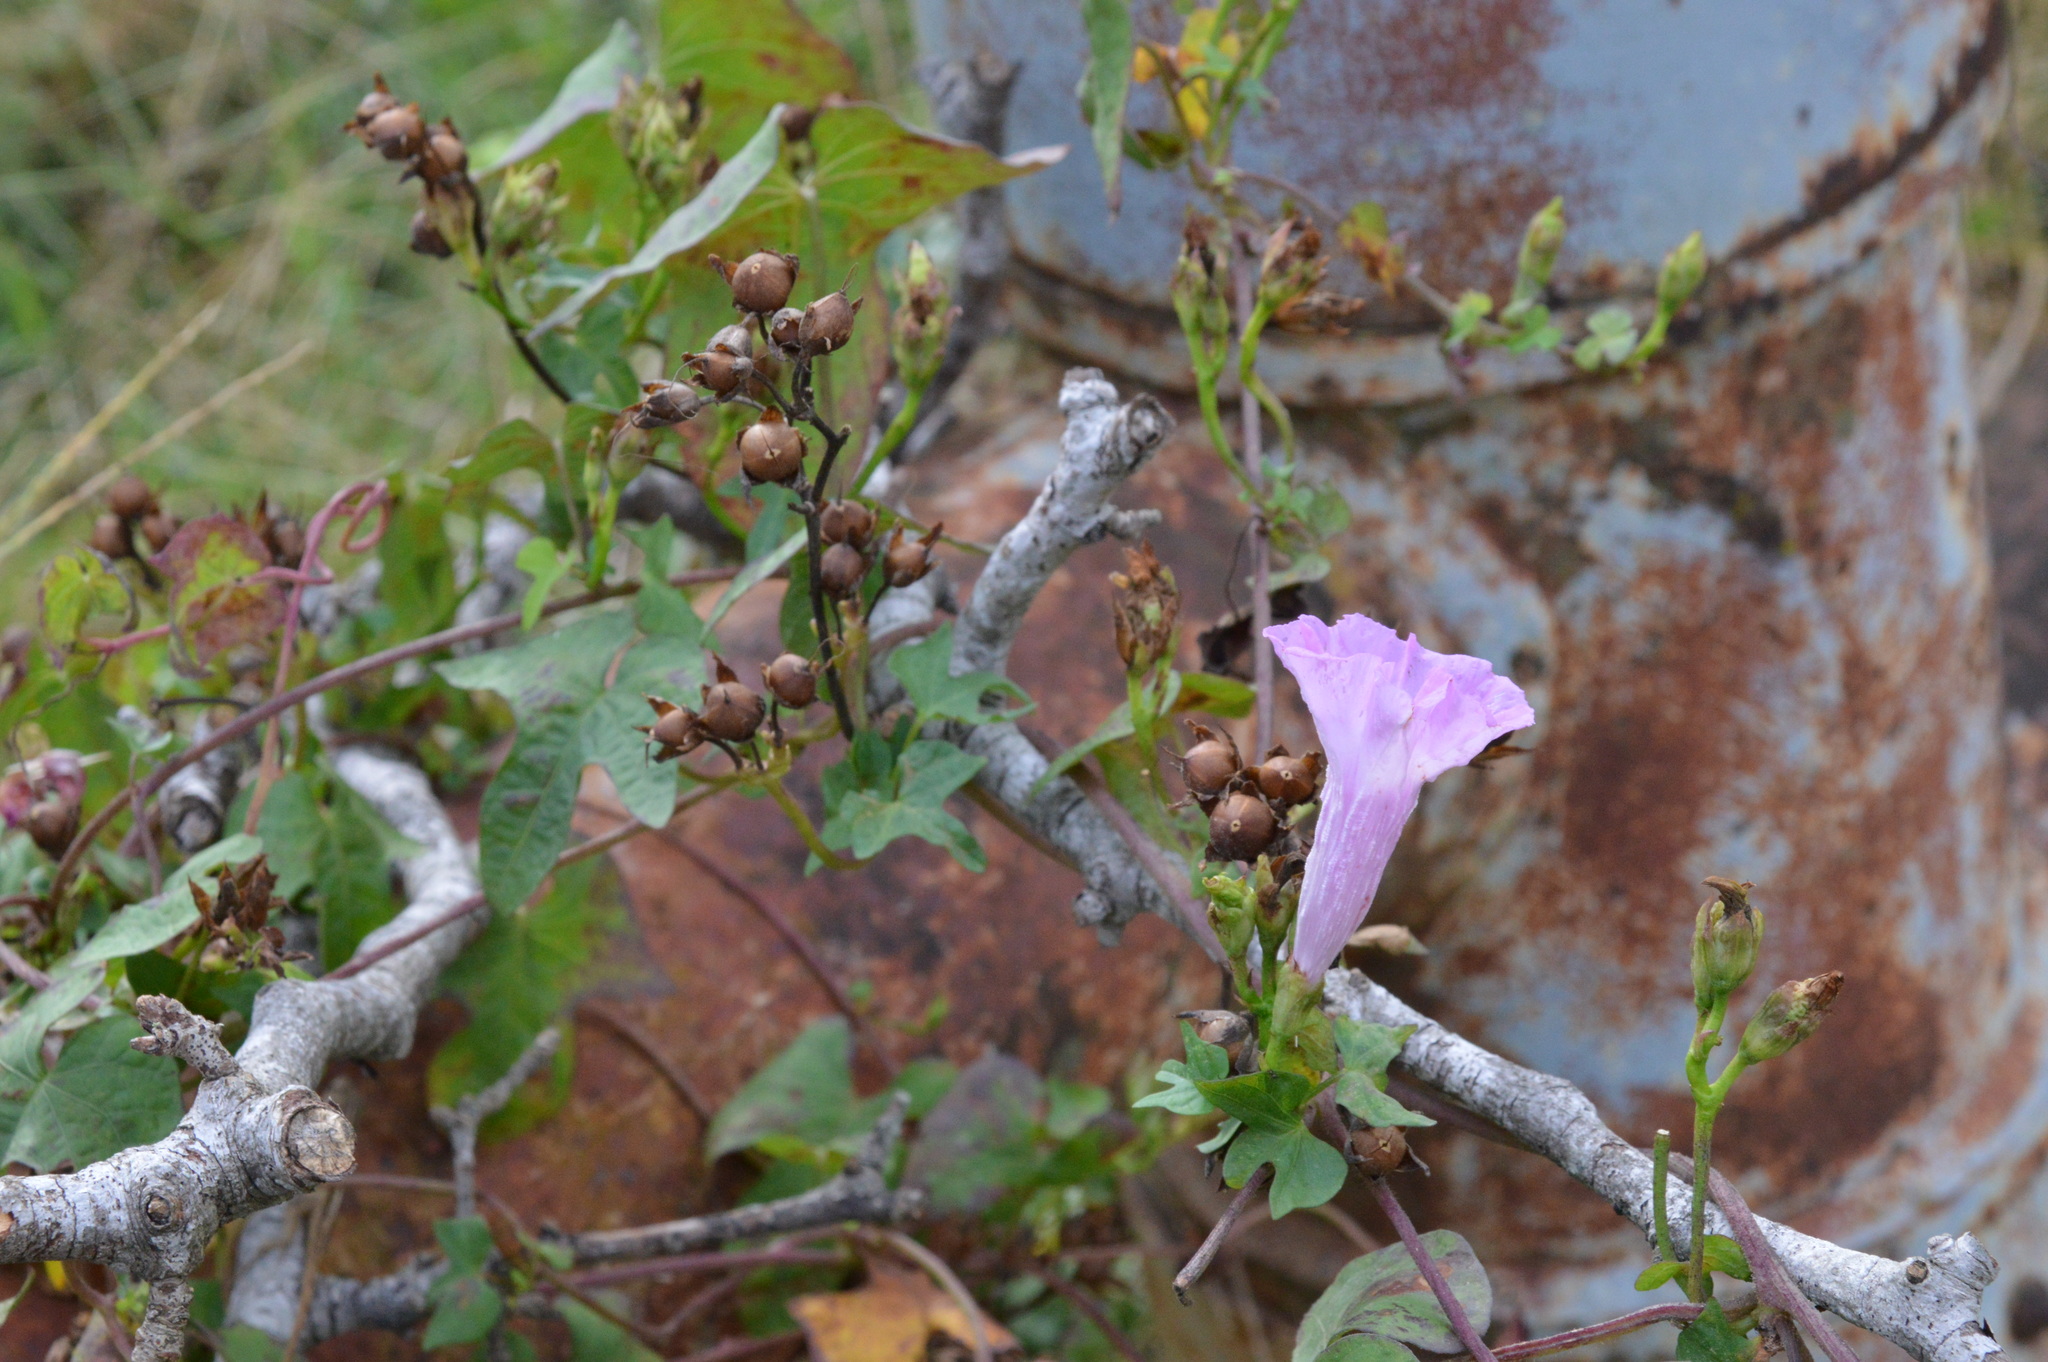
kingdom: Plantae
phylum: Tracheophyta
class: Magnoliopsida
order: Solanales
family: Convolvulaceae
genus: Ipomoea
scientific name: Ipomoea cordatotriloba
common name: Cotton morning glory
